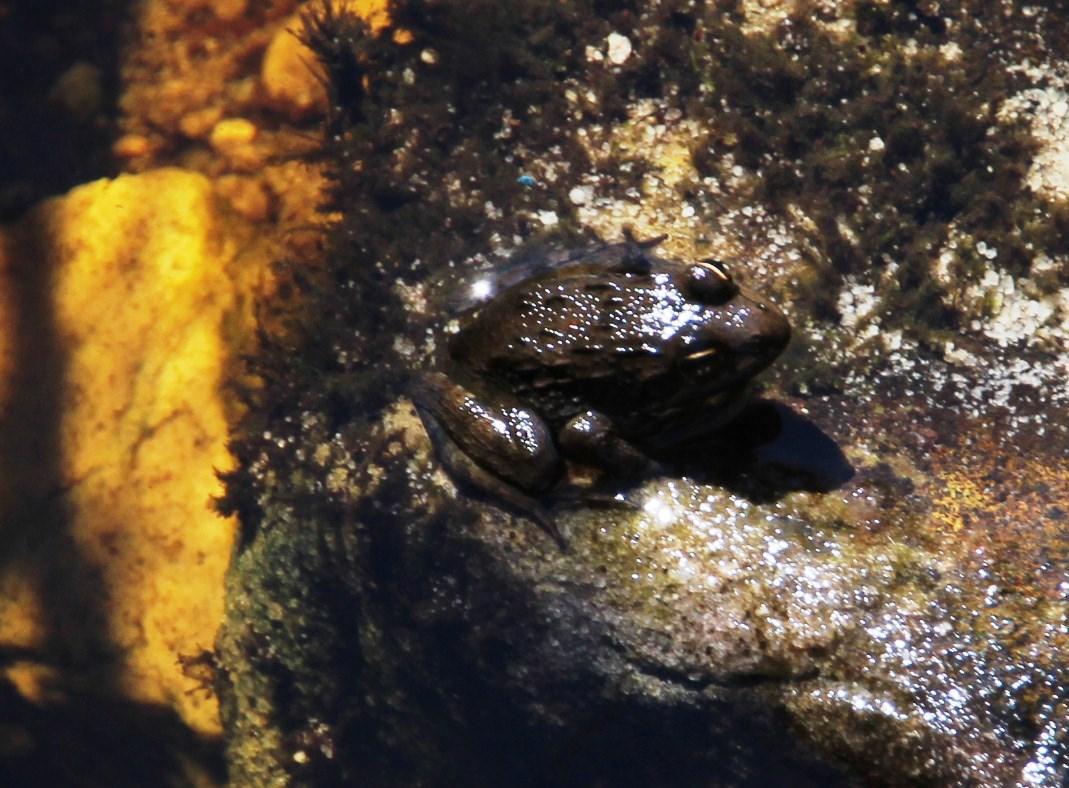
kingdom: Animalia
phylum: Chordata
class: Amphibia
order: Anura
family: Pyxicephalidae
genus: Amietia
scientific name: Amietia fuscigula
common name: Cape rana
